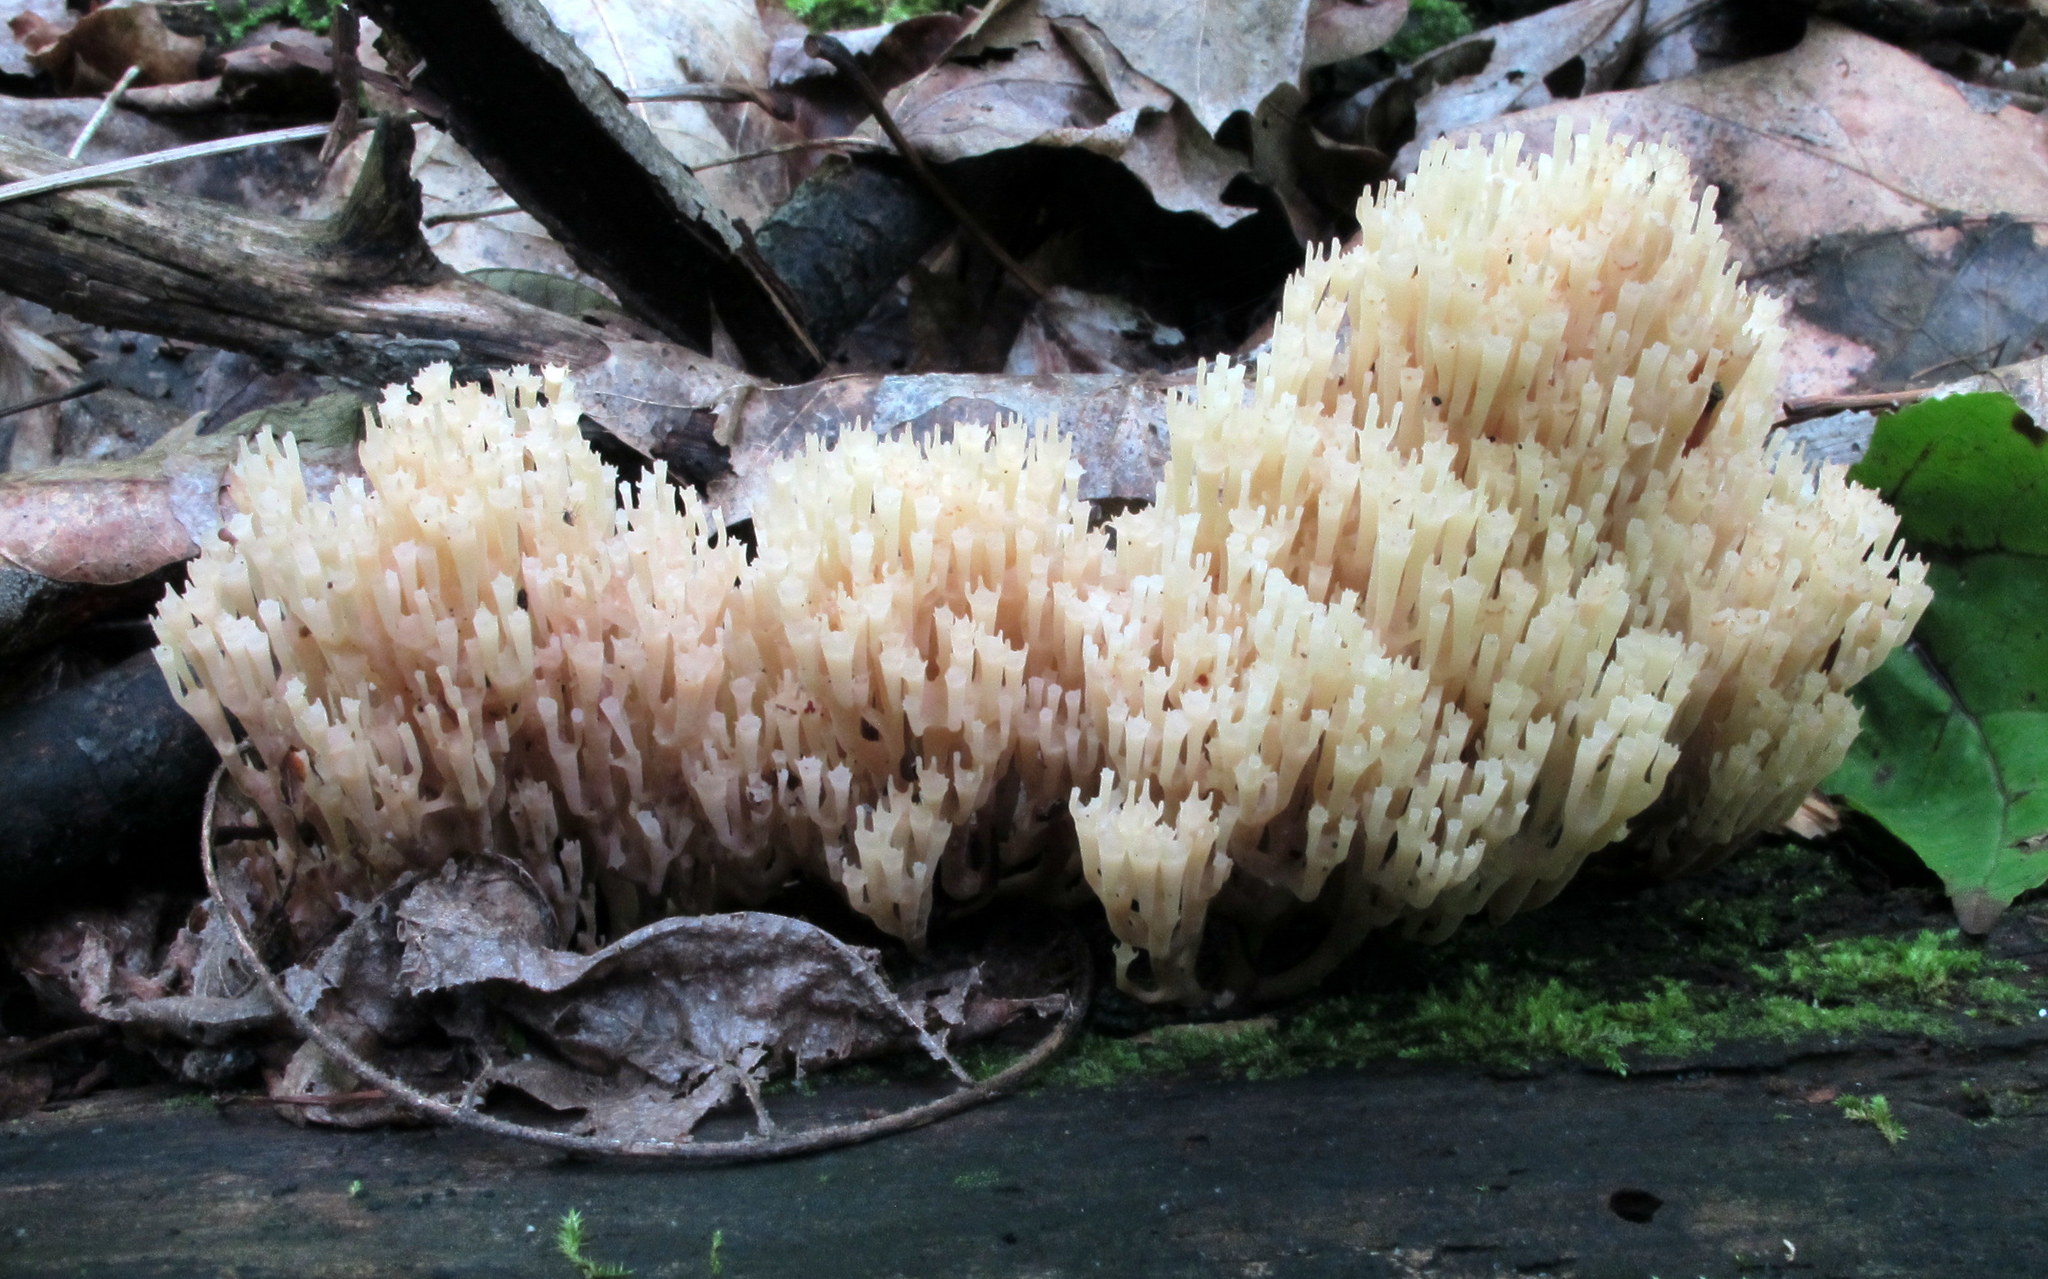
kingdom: Fungi
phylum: Basidiomycota
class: Agaricomycetes
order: Russulales
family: Auriscalpiaceae
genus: Artomyces
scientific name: Artomyces pyxidatus
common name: Crown-tipped coral fungus
